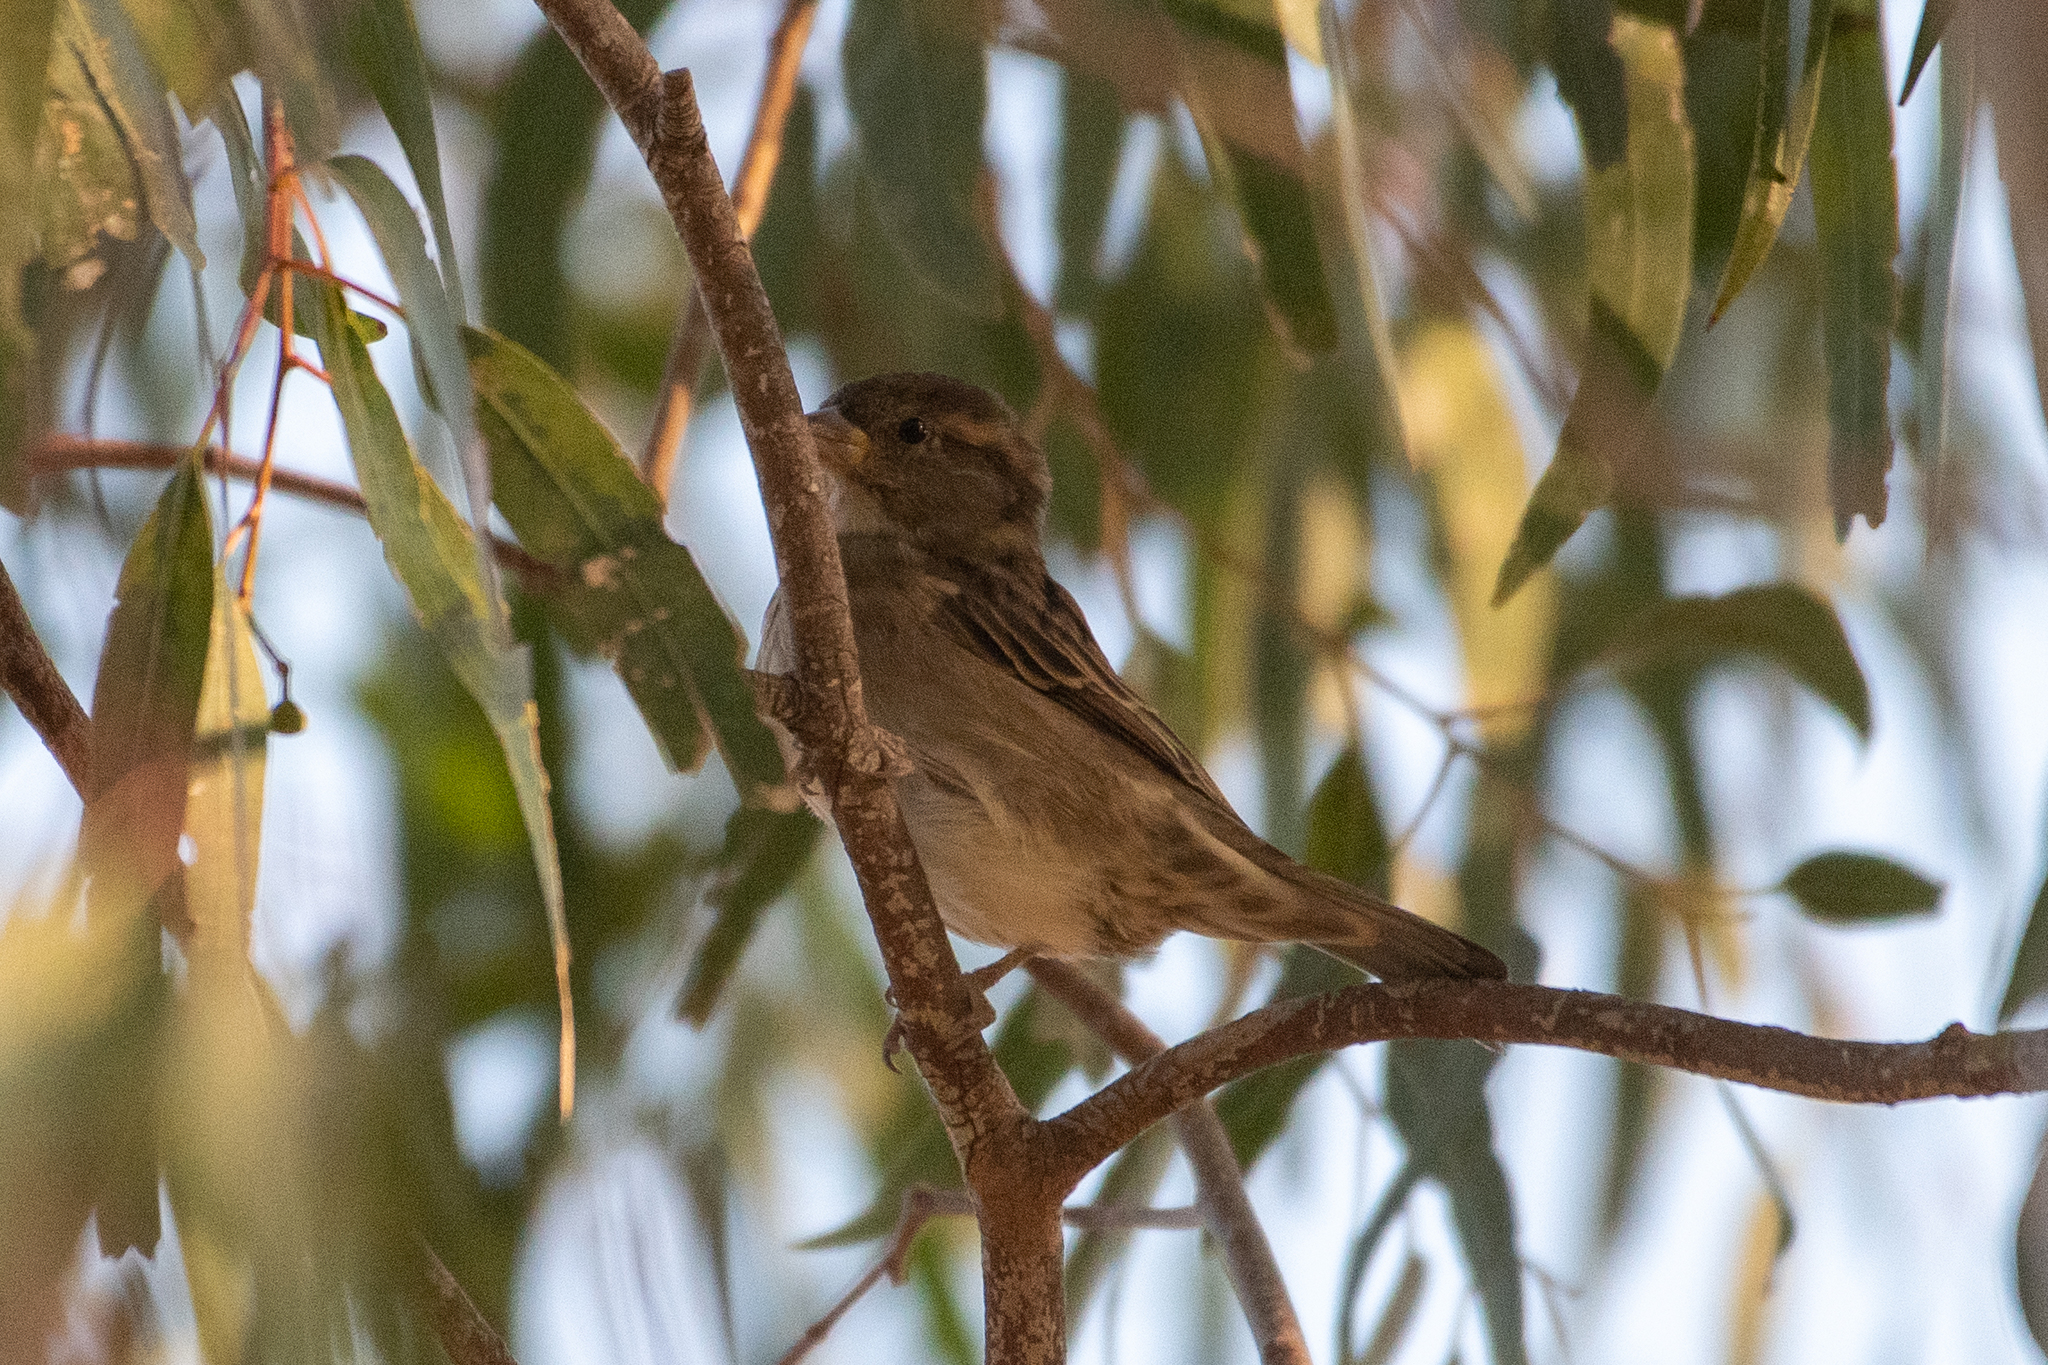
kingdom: Animalia
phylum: Chordata
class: Aves
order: Passeriformes
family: Passeridae
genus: Passer
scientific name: Passer domesticus
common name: House sparrow
